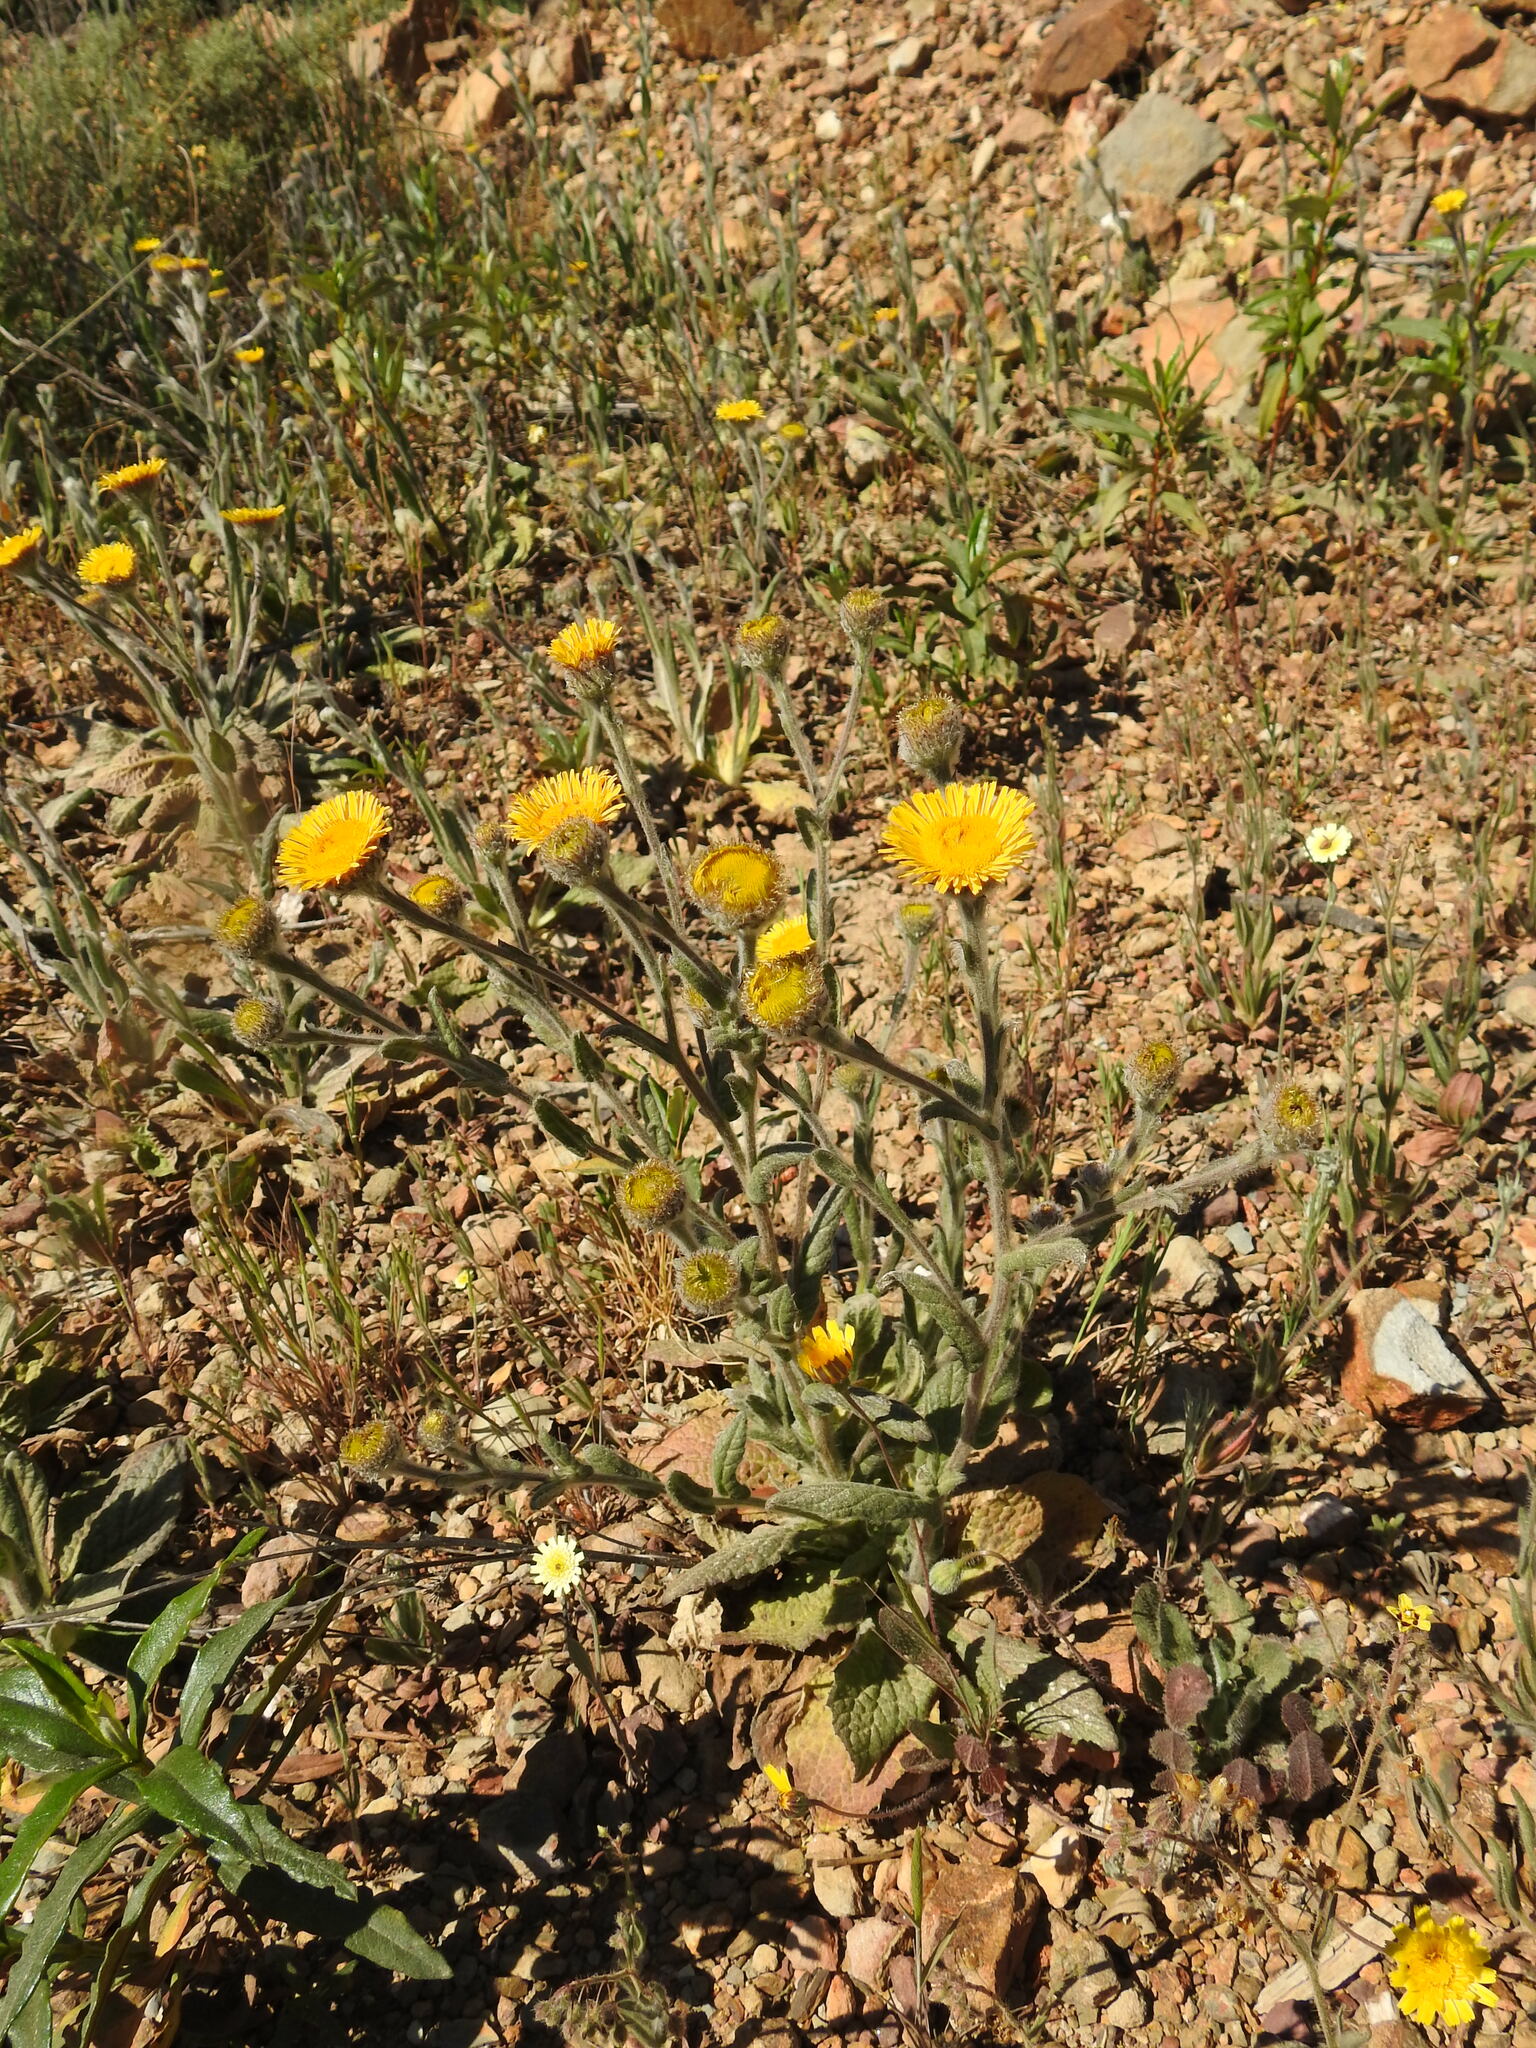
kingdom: Plantae
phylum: Tracheophyta
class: Magnoliopsida
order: Asterales
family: Asteraceae
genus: Pulicaria
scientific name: Pulicaria odora
